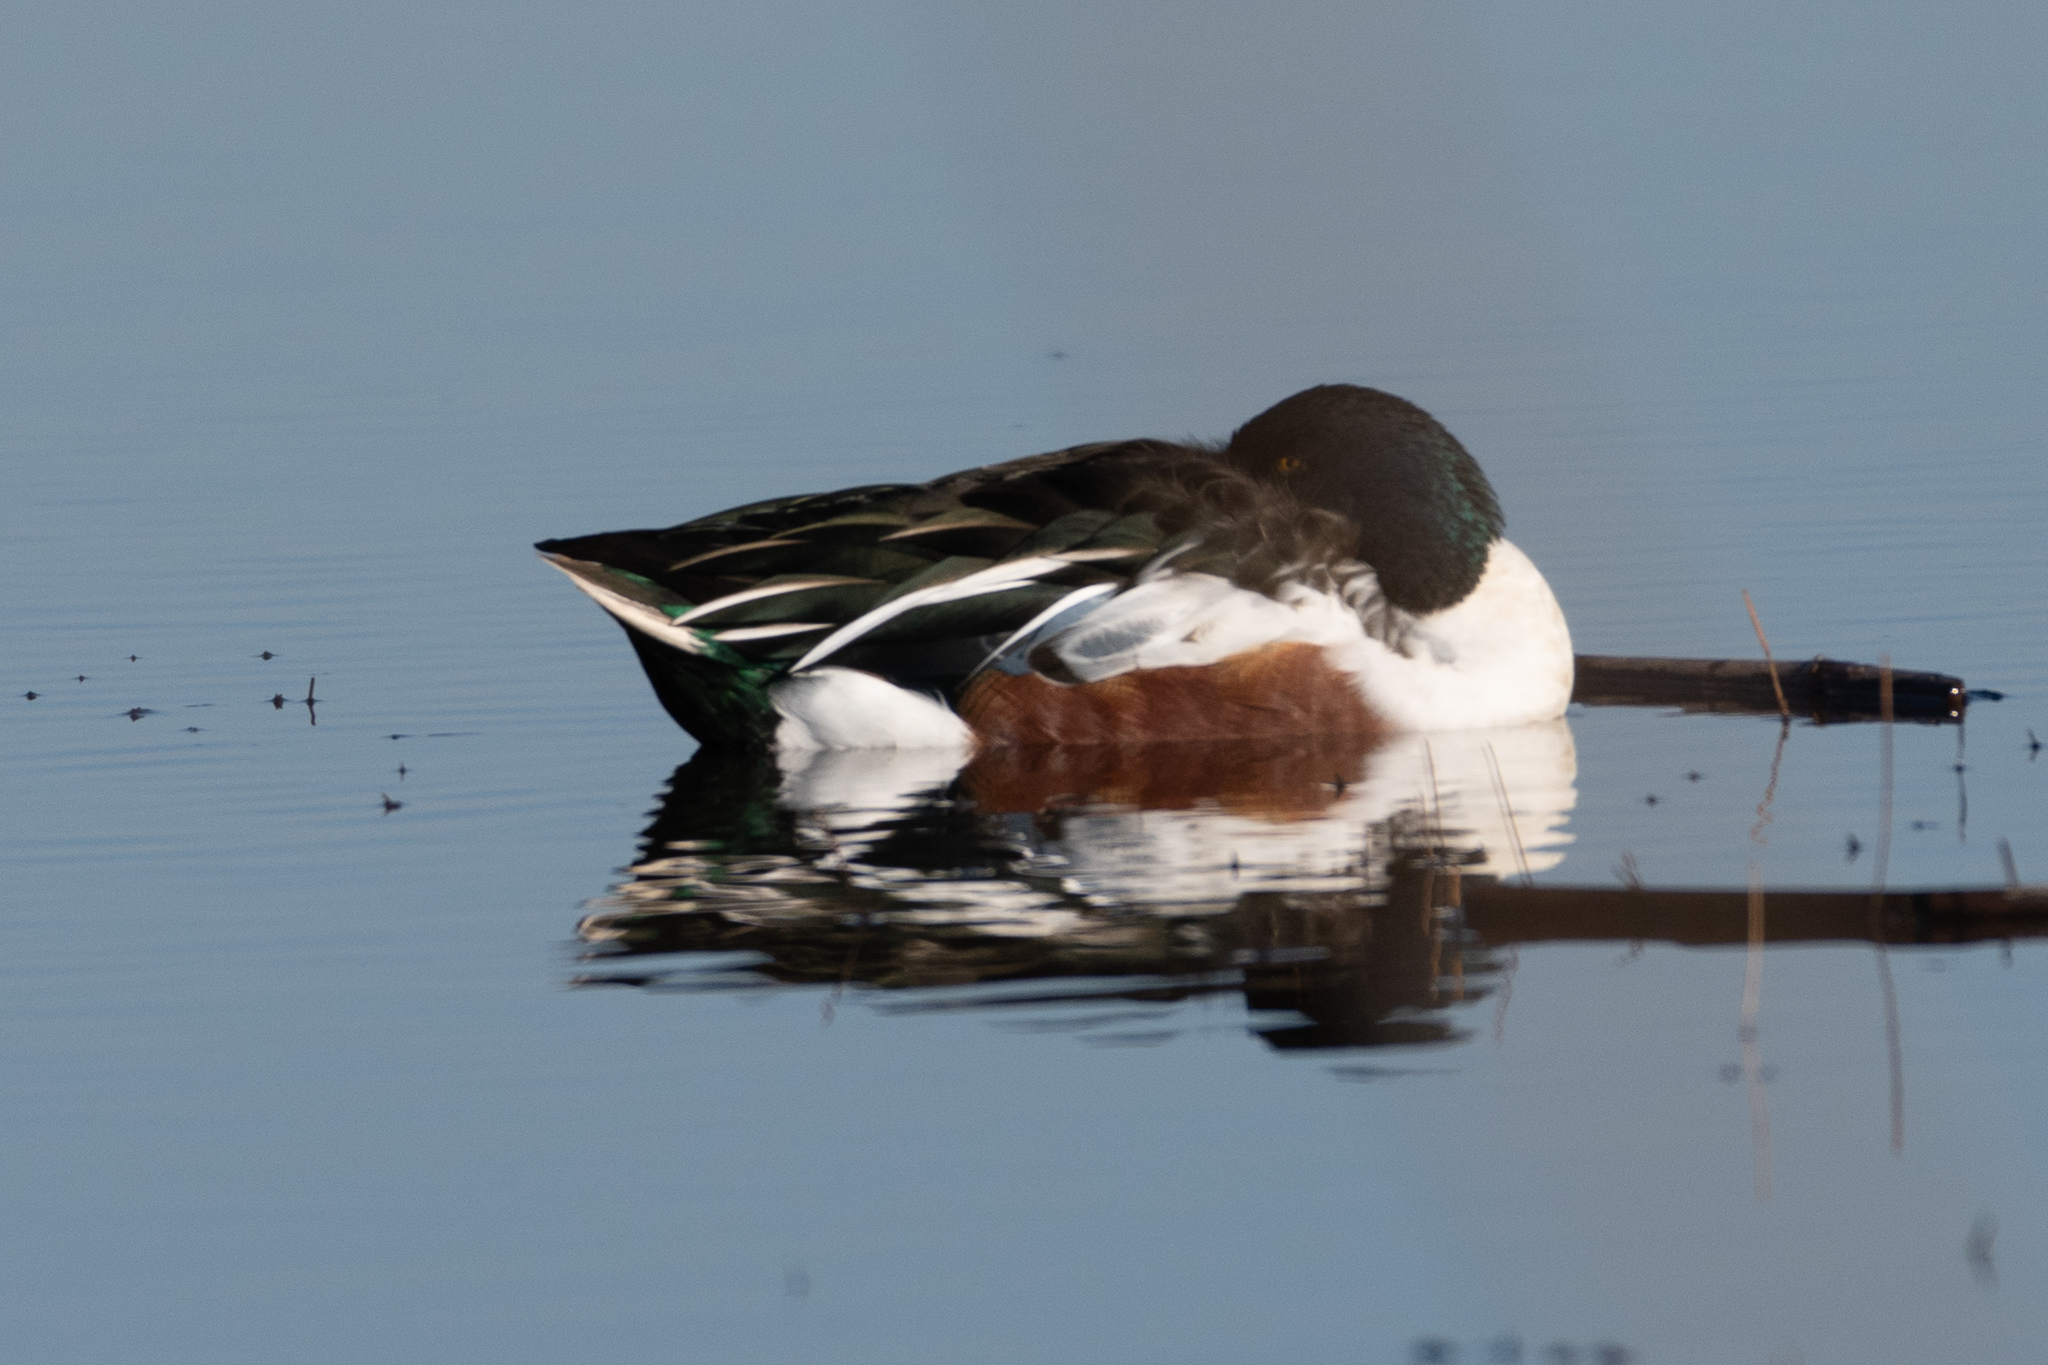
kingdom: Animalia
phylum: Chordata
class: Aves
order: Anseriformes
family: Anatidae
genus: Spatula
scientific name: Spatula clypeata
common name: Northern shoveler
